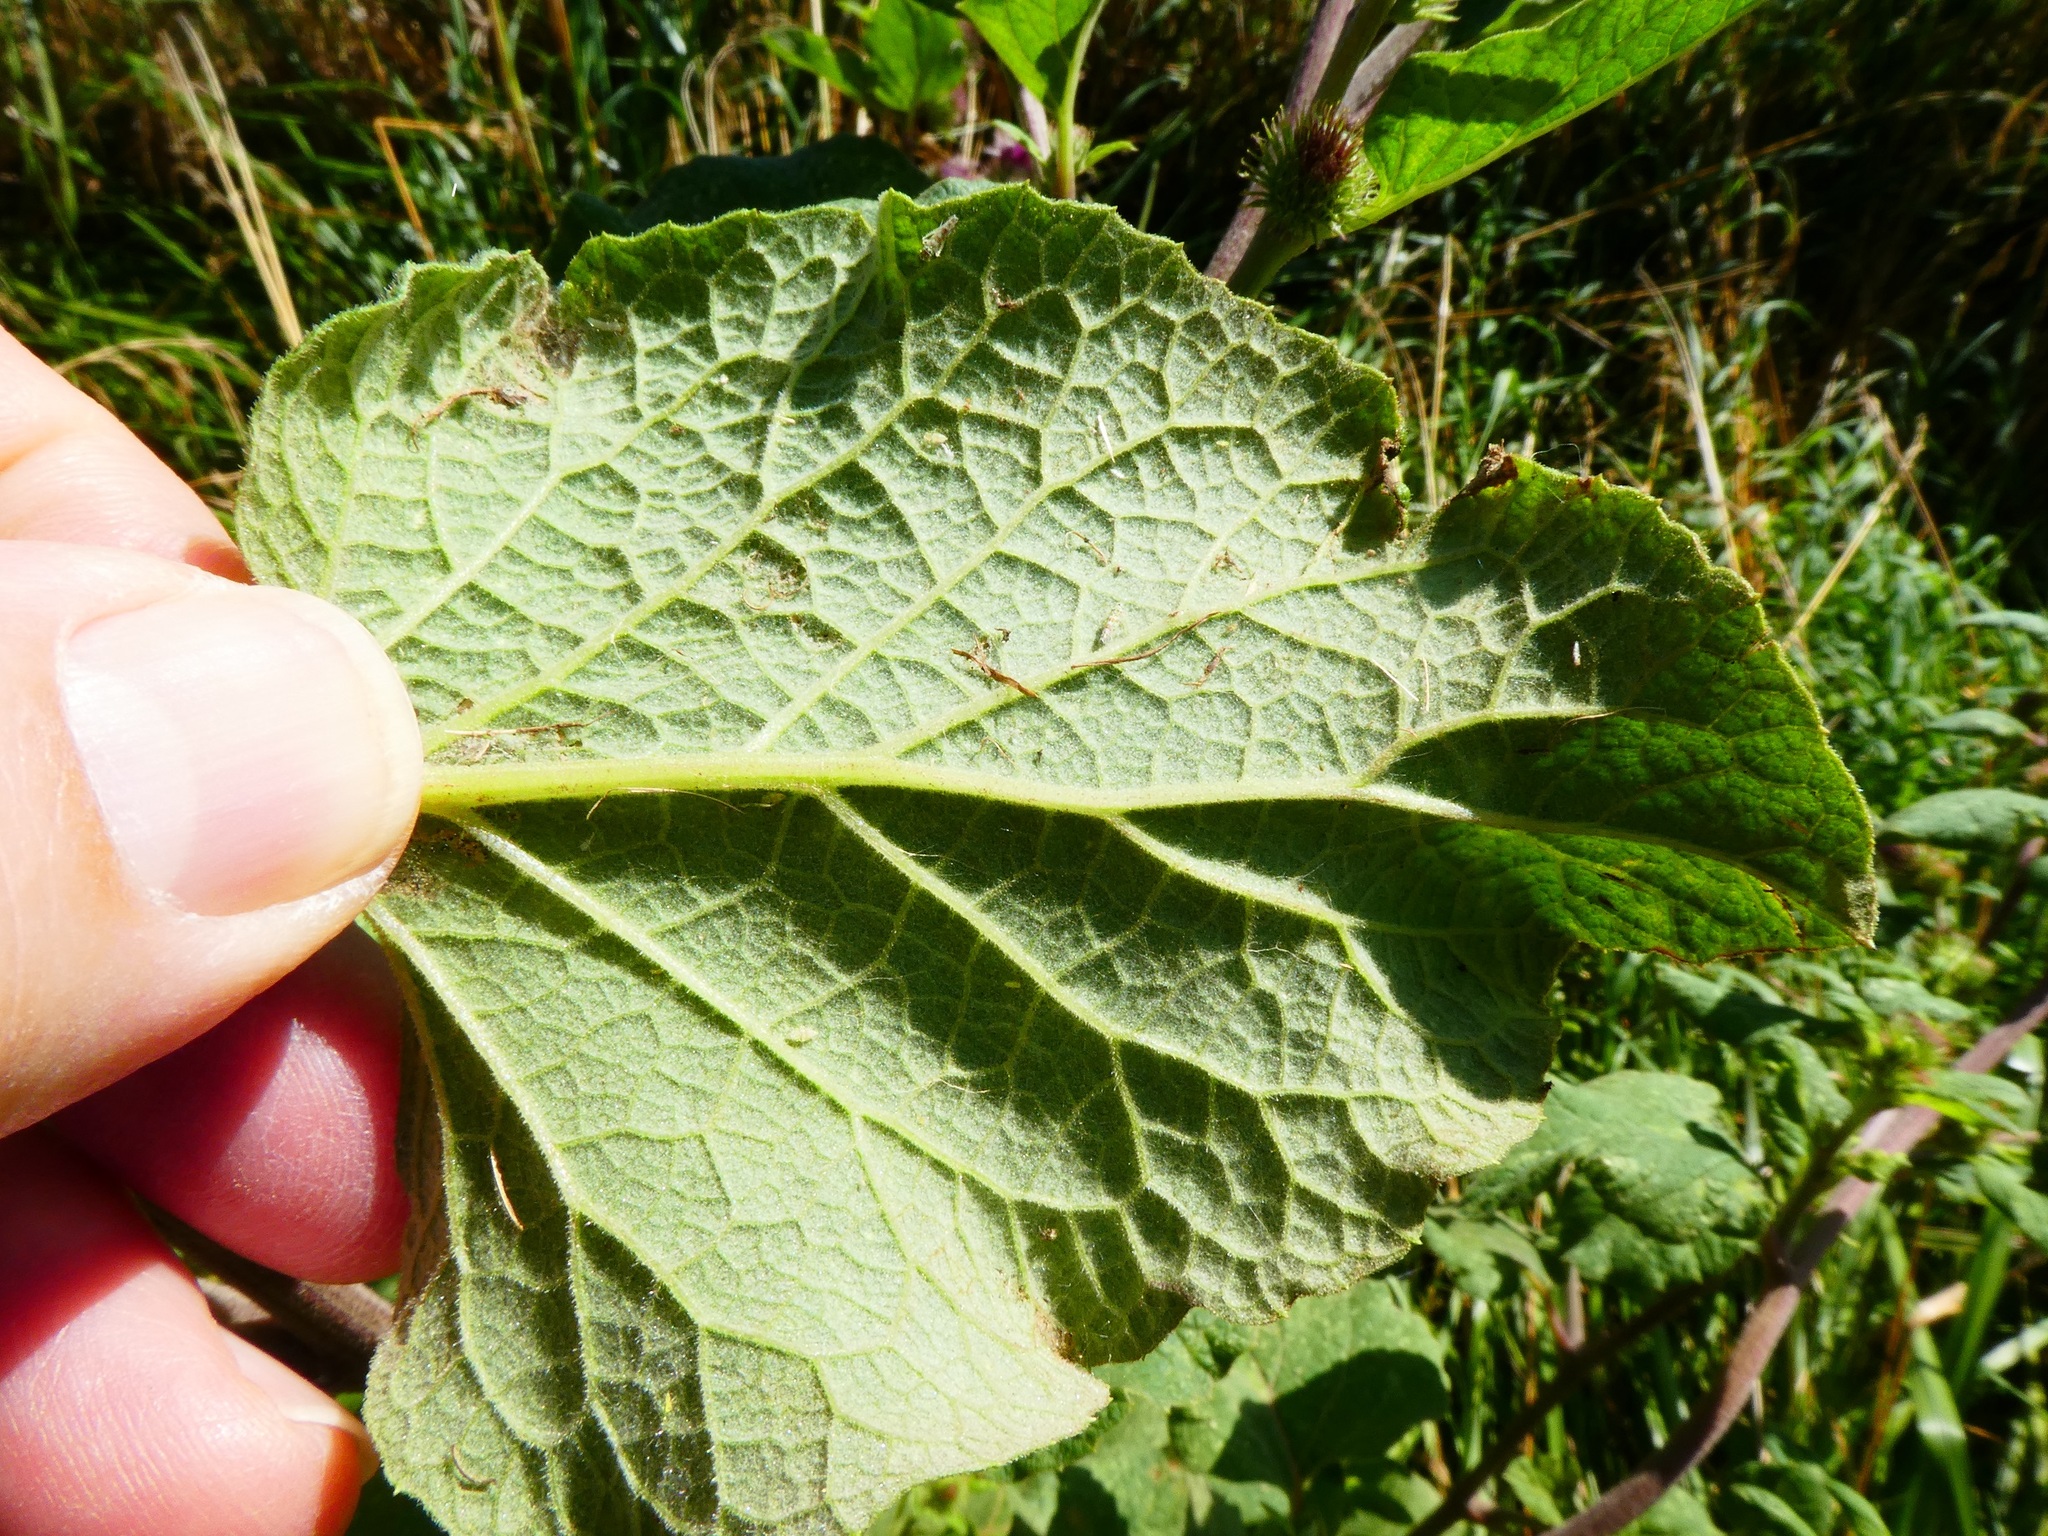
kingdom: Plantae
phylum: Tracheophyta
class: Magnoliopsida
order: Asterales
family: Asteraceae
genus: Arctium
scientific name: Arctium minus
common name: Lesser burdock
